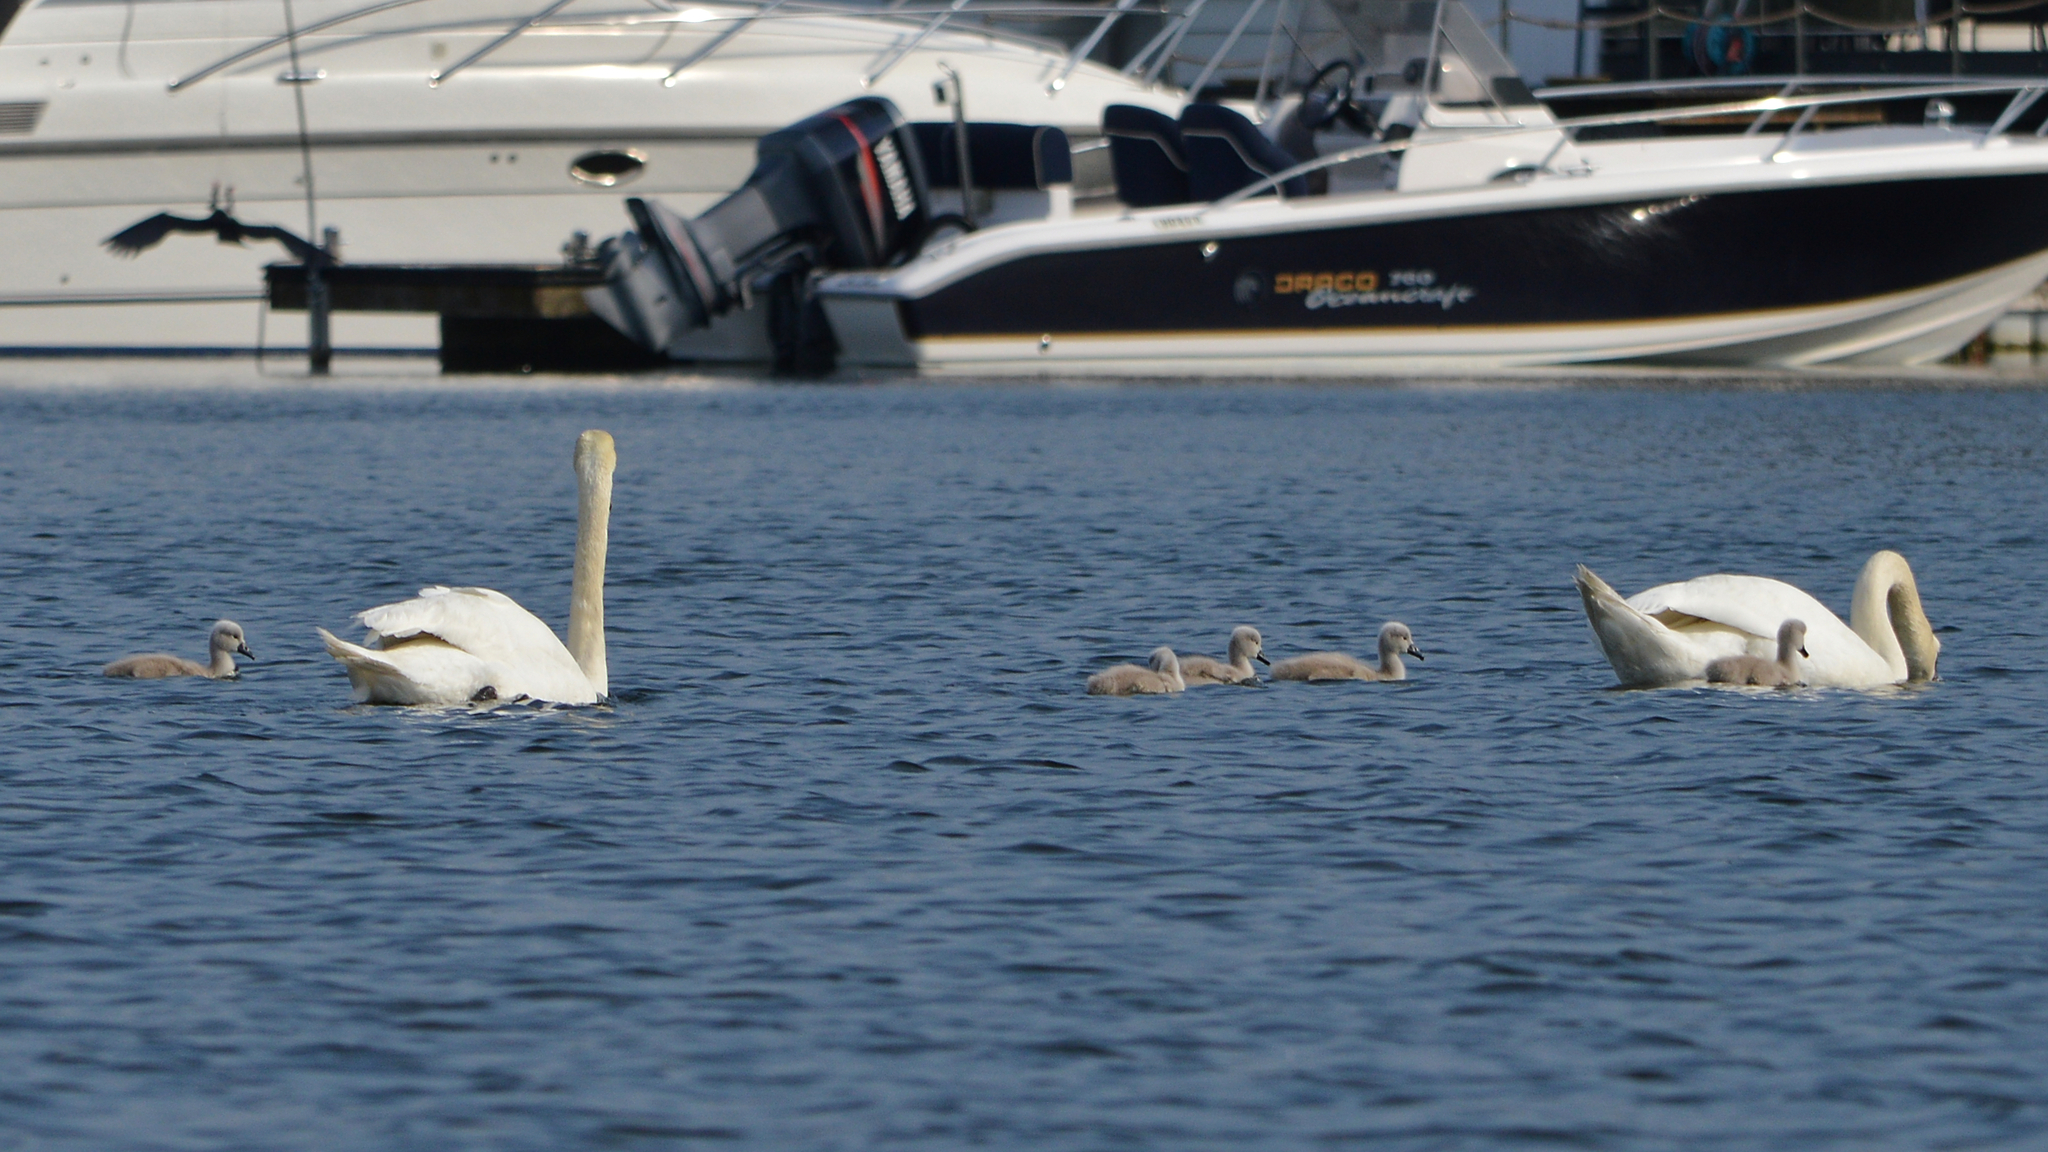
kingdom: Animalia
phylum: Chordata
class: Aves
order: Anseriformes
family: Anatidae
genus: Cygnus
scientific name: Cygnus olor
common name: Mute swan
